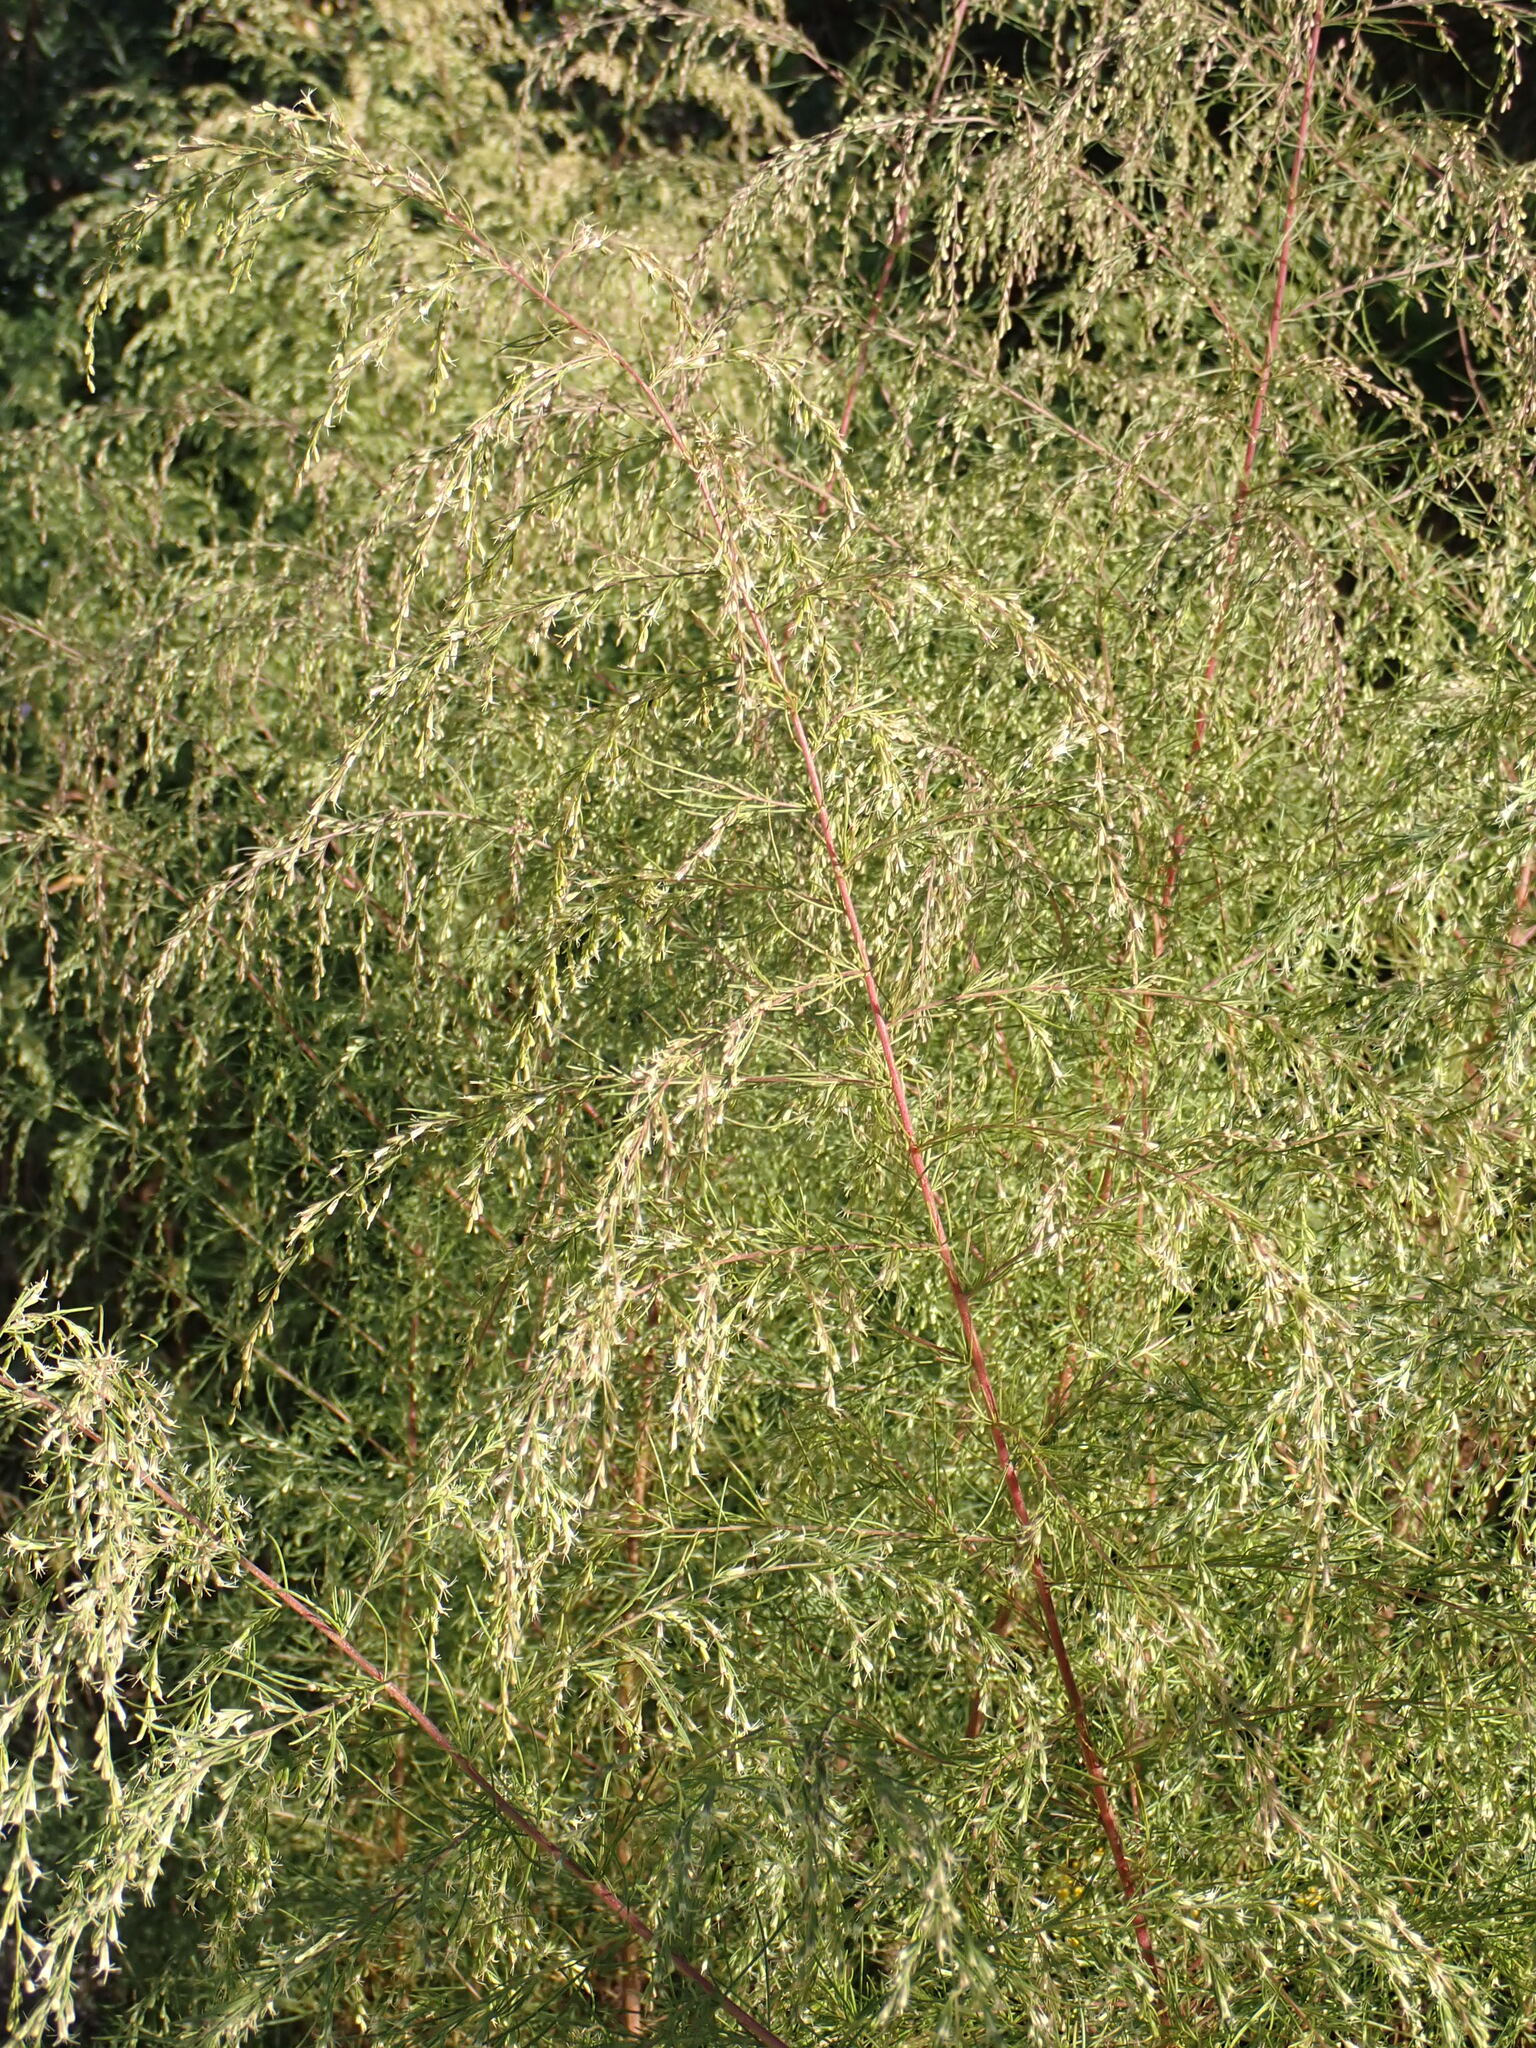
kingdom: Plantae
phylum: Tracheophyta
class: Magnoliopsida
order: Asterales
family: Asteraceae
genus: Eupatorium
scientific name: Eupatorium capillifolium
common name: Dog-fennel
